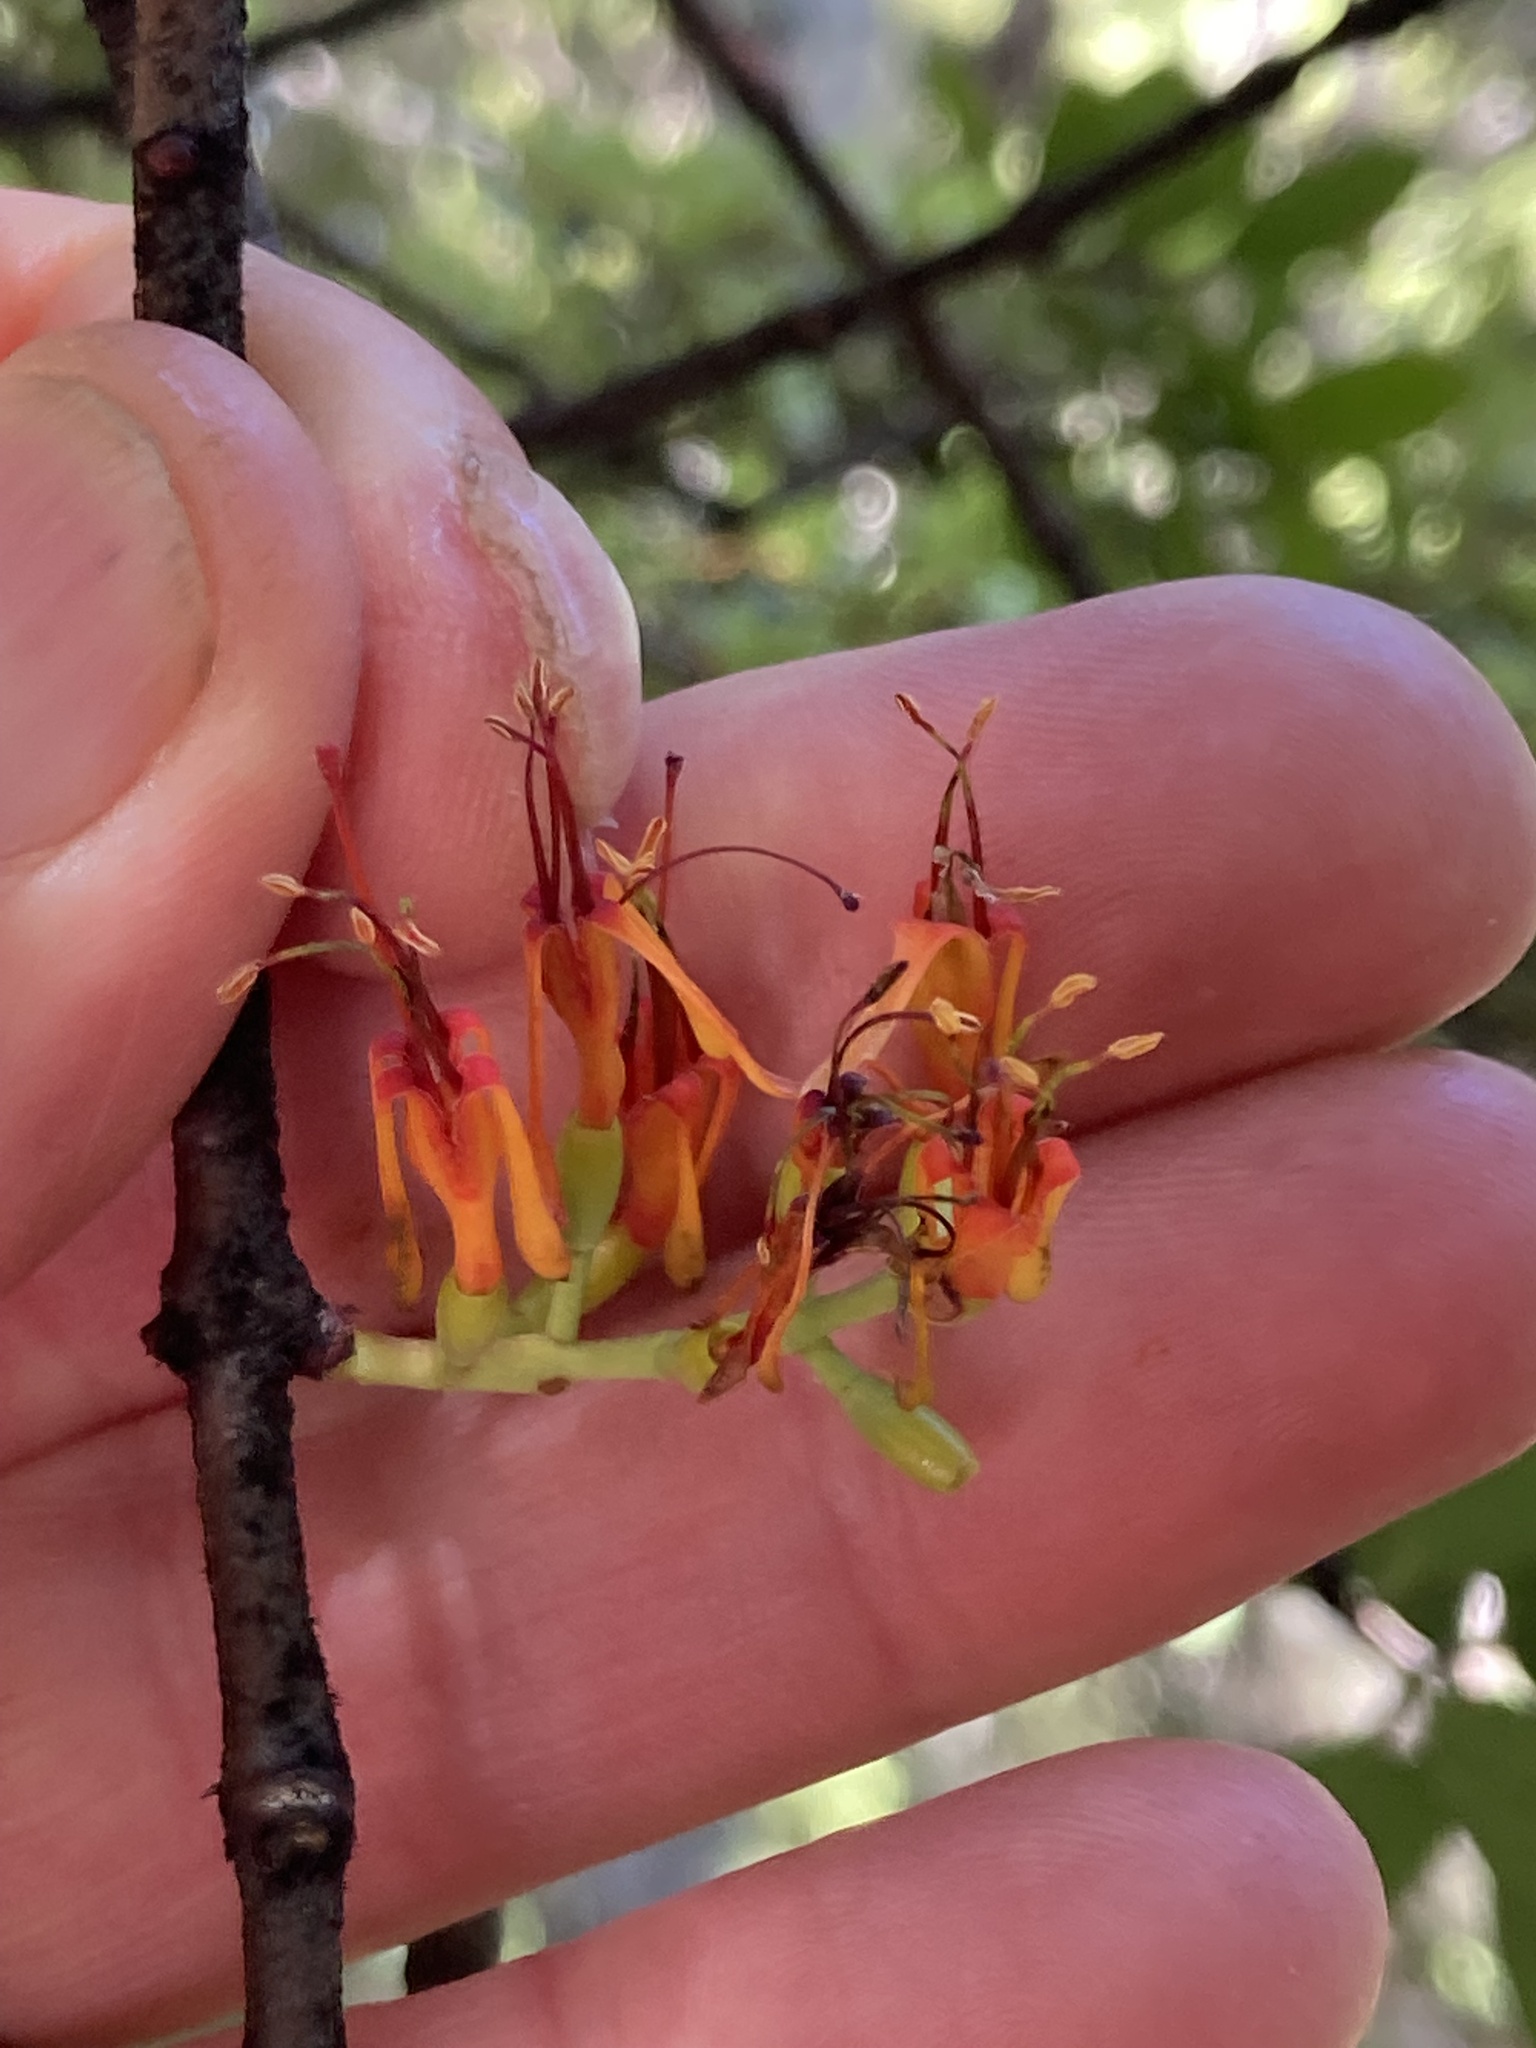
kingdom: Plantae
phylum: Tracheophyta
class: Magnoliopsida
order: Santalales
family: Loranthaceae
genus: Alepis
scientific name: Alepis flavida
